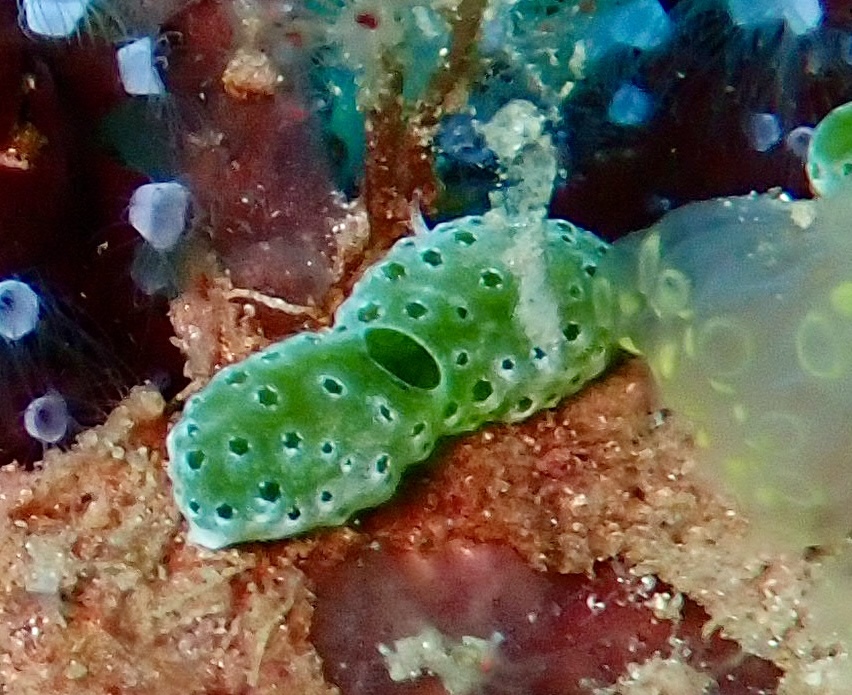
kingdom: Animalia
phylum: Chordata
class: Ascidiacea
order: Aplousobranchia
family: Didemnidae
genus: Didemnum
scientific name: Didemnum molle
